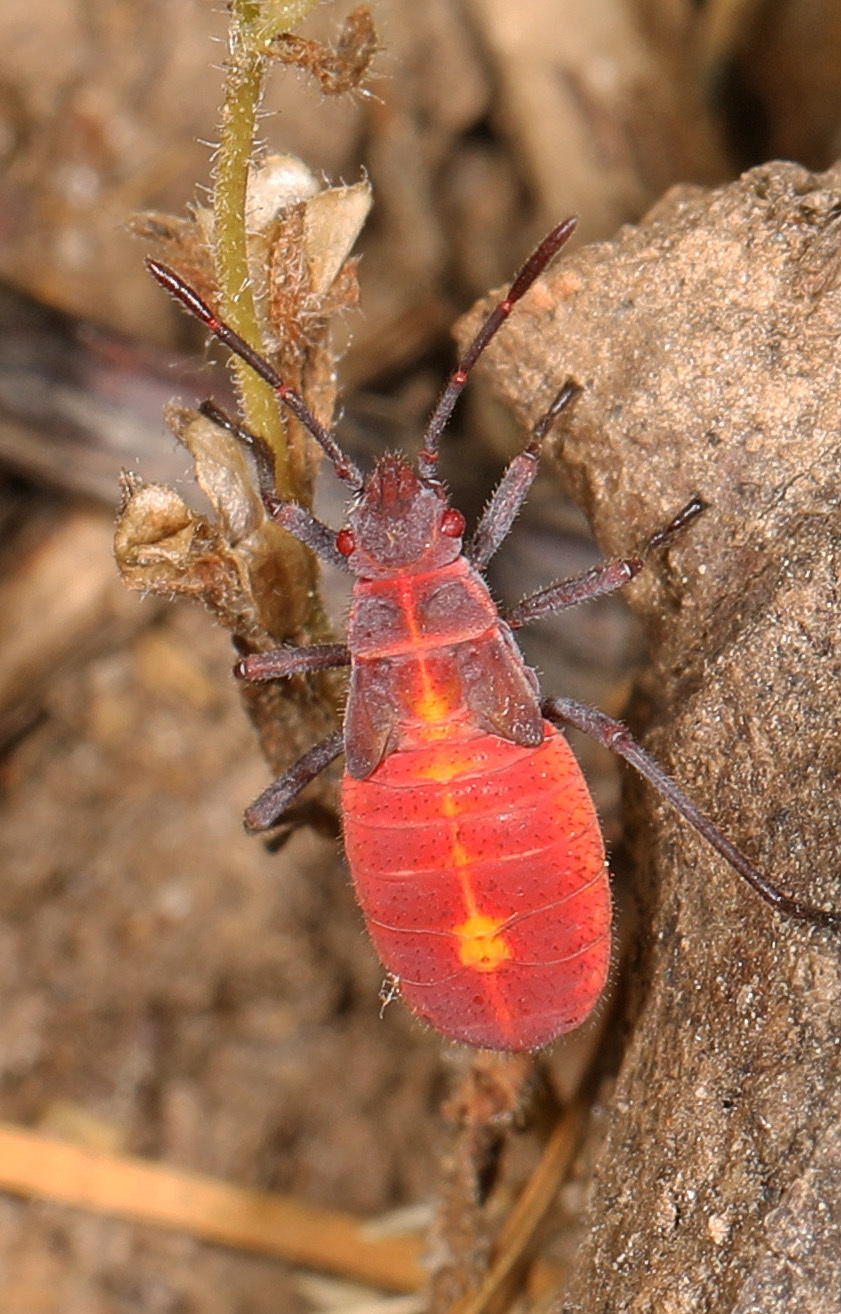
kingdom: Animalia
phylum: Arthropoda
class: Insecta
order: Hemiptera
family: Rhopalidae
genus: Boisea
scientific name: Boisea trivittata
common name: Boxelder bug
